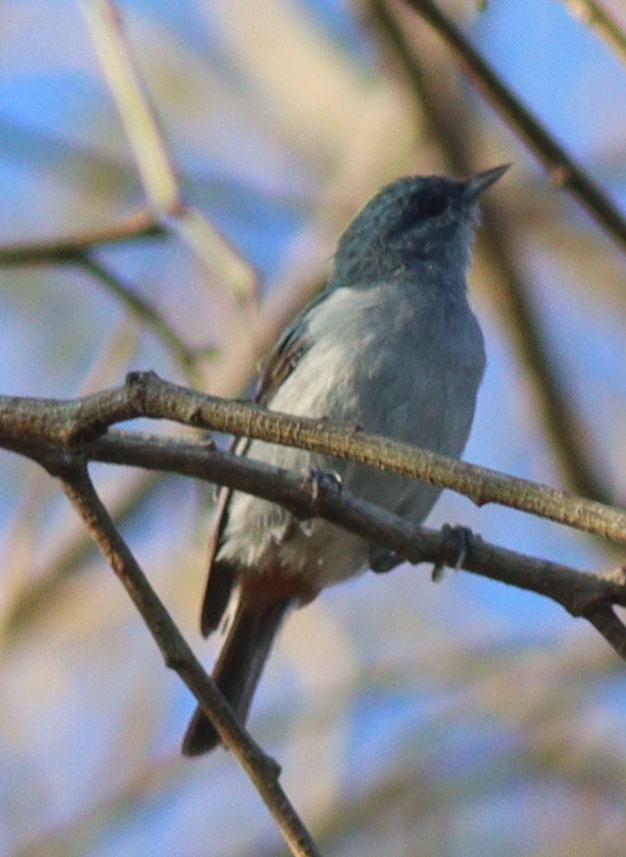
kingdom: Animalia
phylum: Chordata
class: Aves
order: Passeriformes
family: Thraupidae
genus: Conirostrum
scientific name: Conirostrum speciosum
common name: Chestnut-vented conebill
